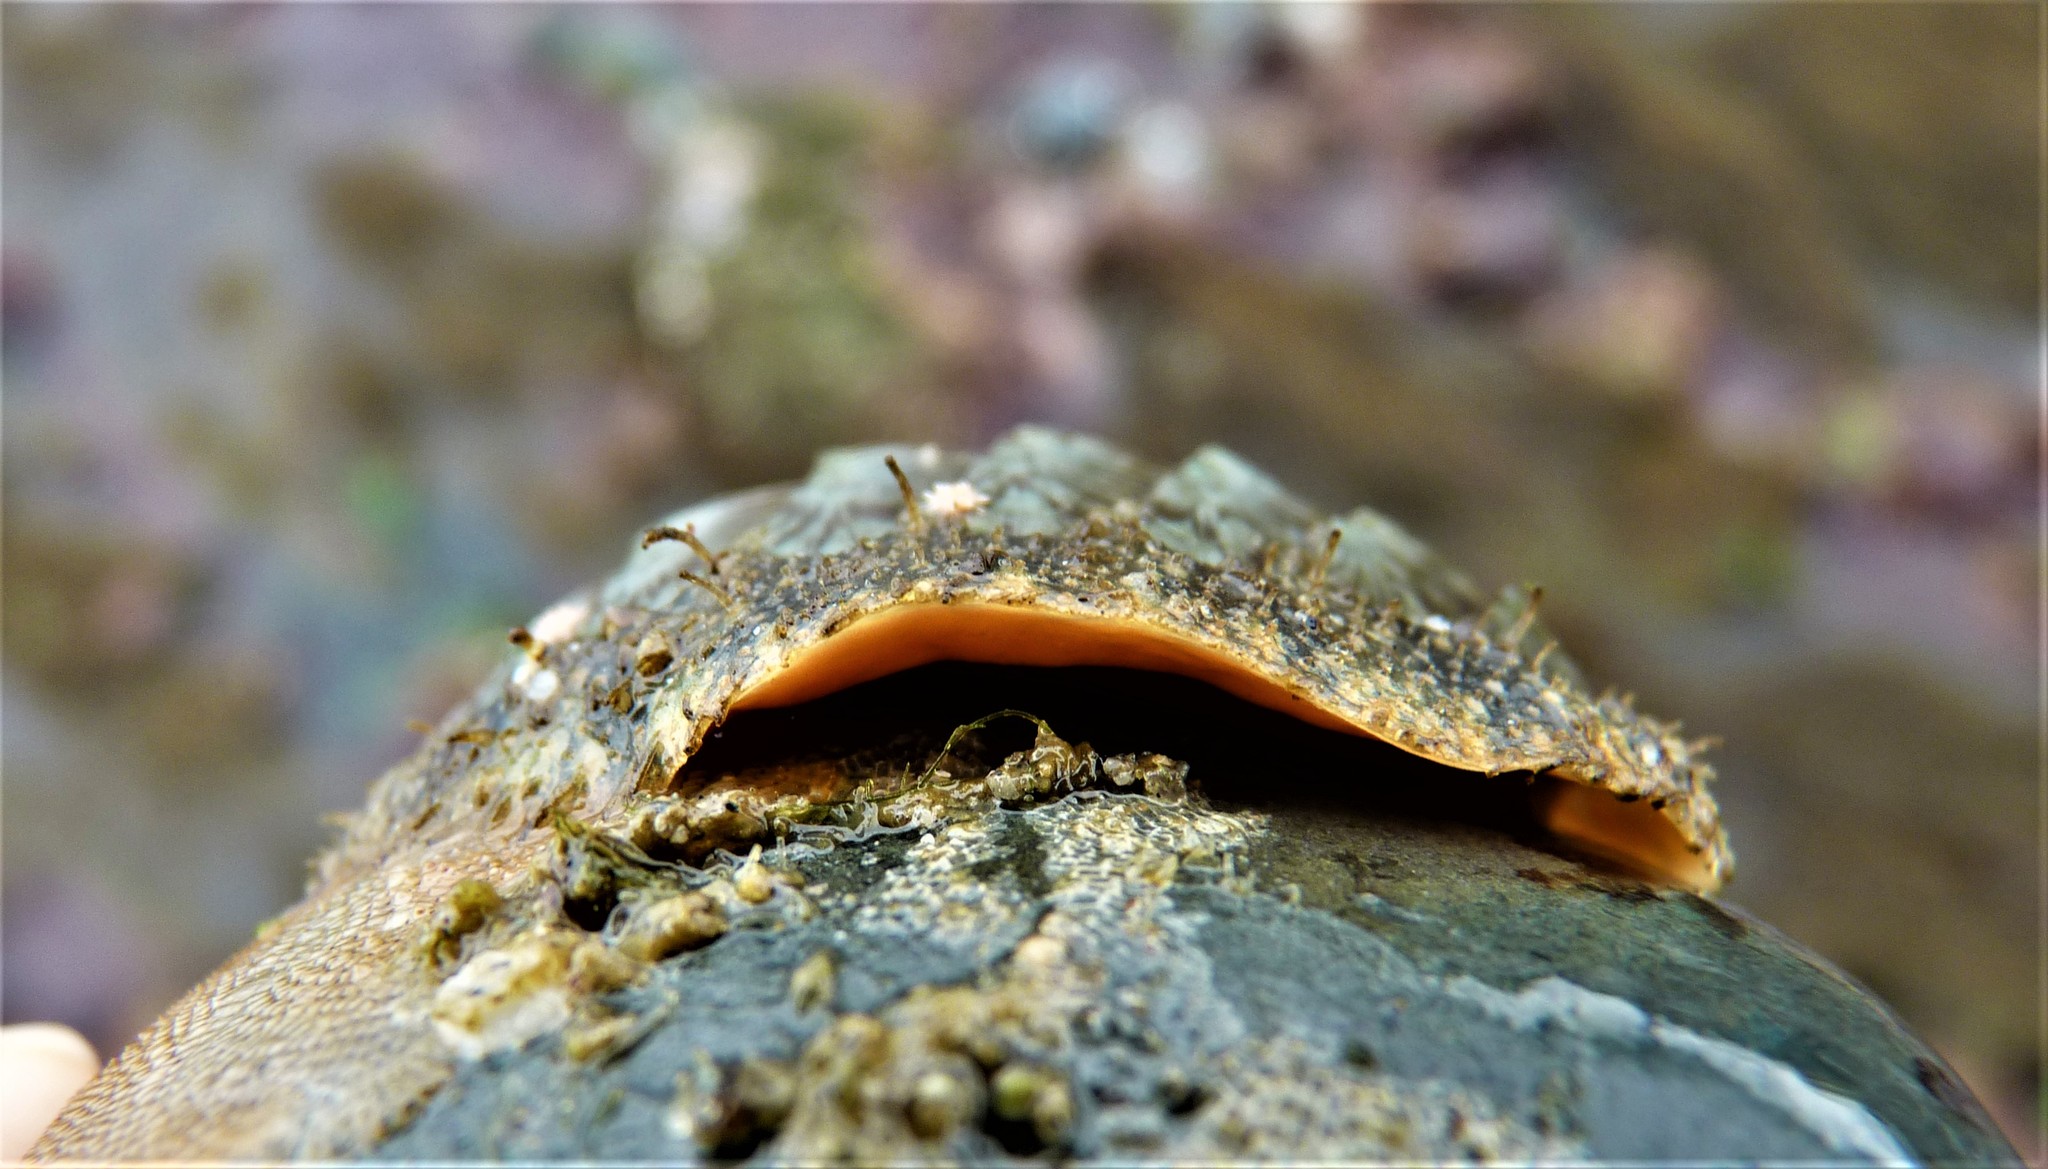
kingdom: Animalia
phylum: Mollusca
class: Polyplacophora
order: Chitonida
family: Mopaliidae
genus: Mopalia
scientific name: Mopalia lignosa
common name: Woody chiton
